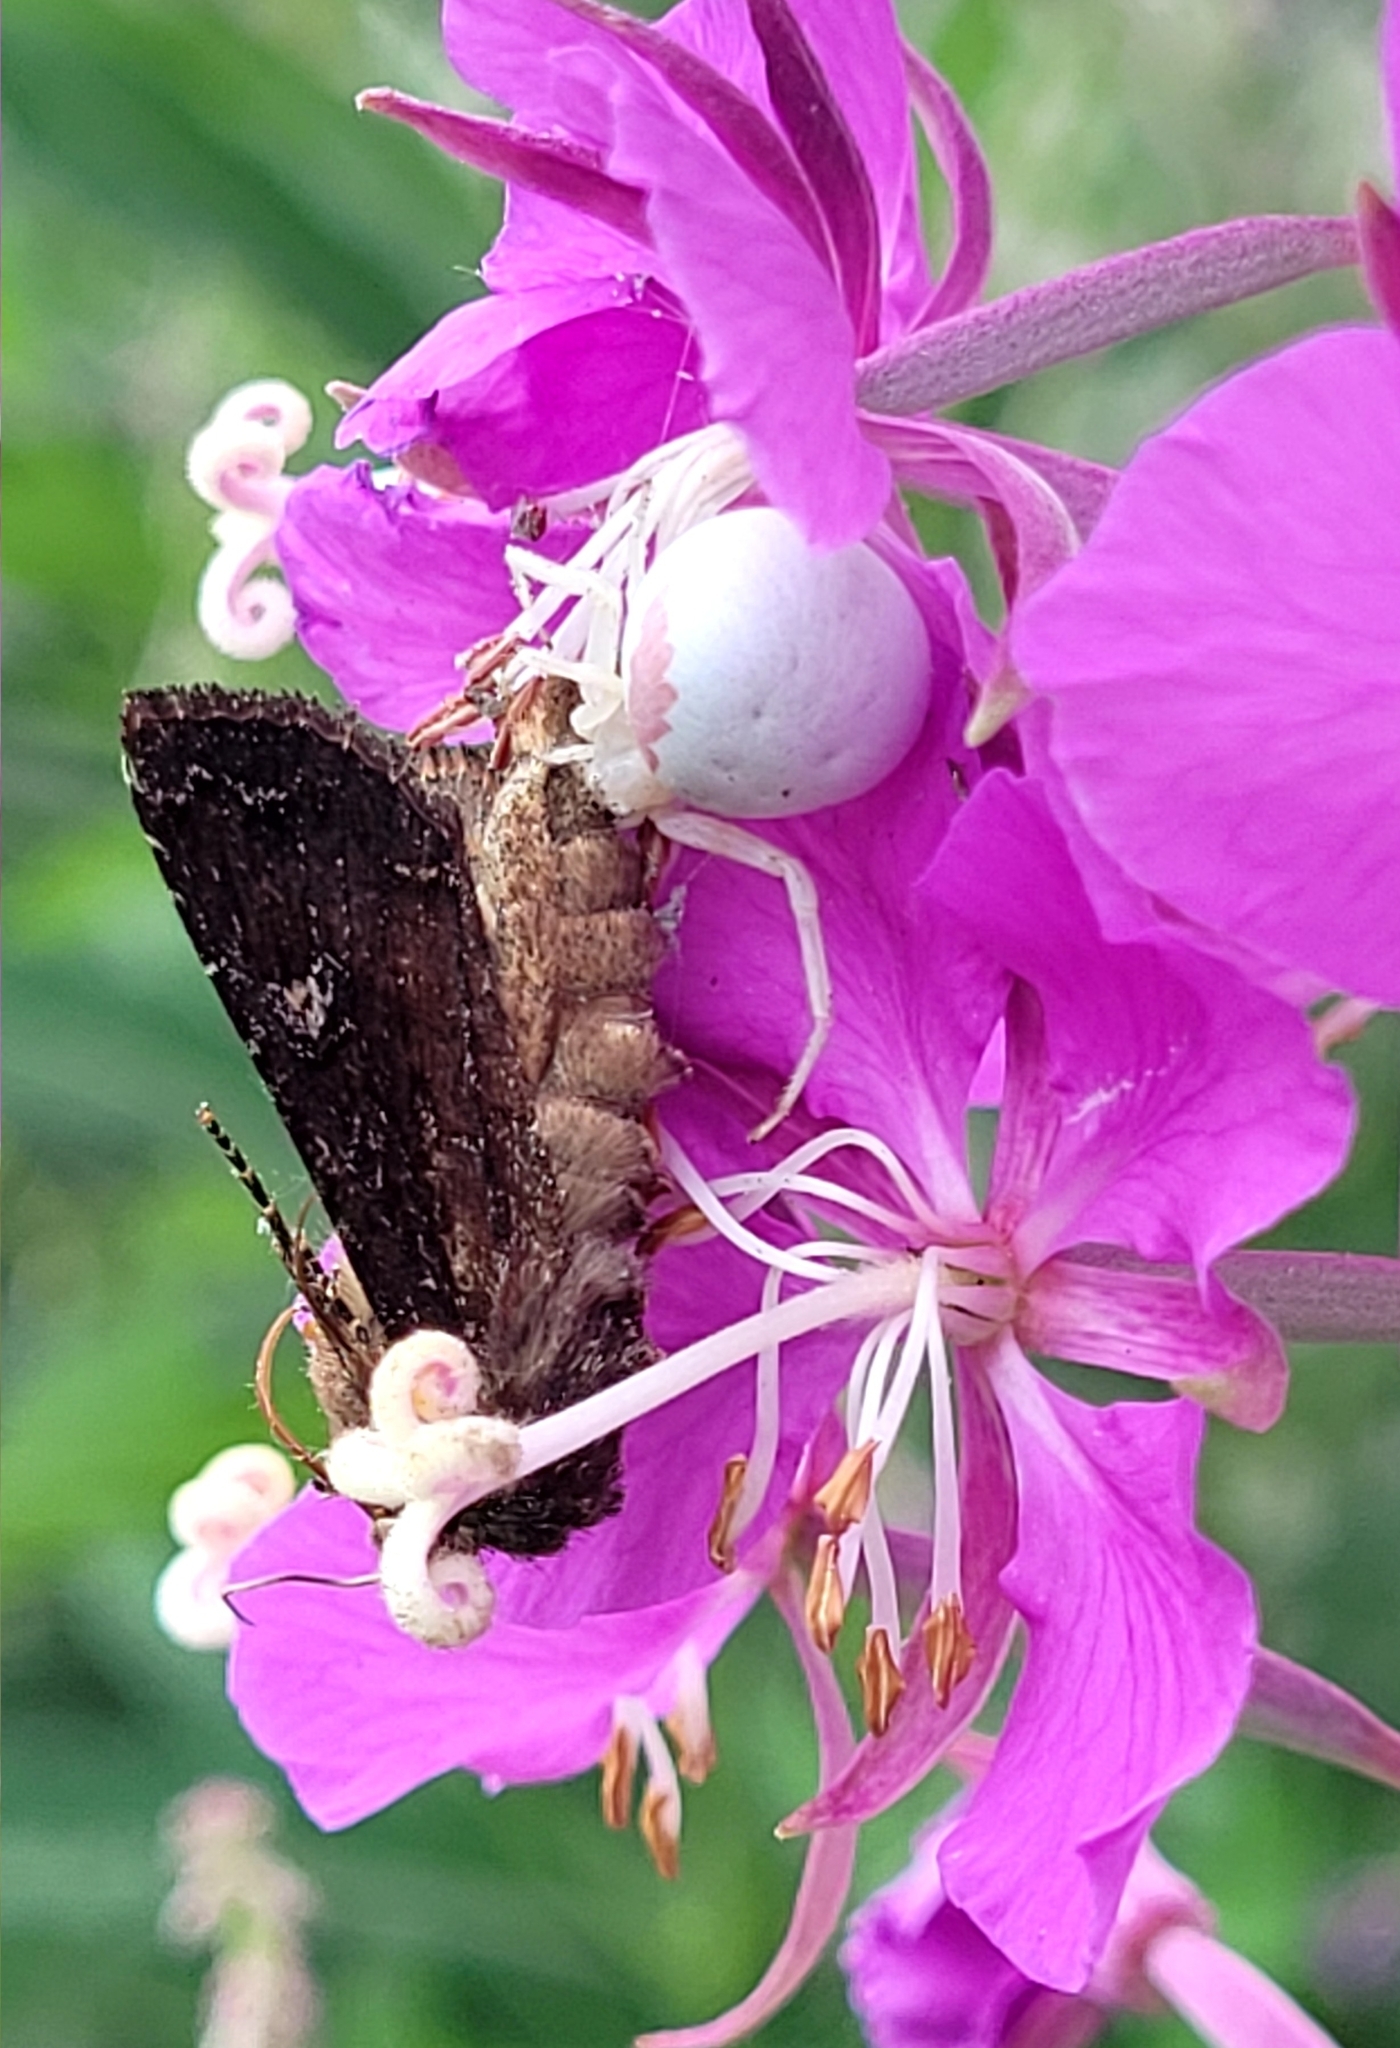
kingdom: Animalia
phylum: Arthropoda
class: Arachnida
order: Araneae
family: Thomisidae
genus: Misumena
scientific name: Misumena vatia
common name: Goldenrod crab spider
